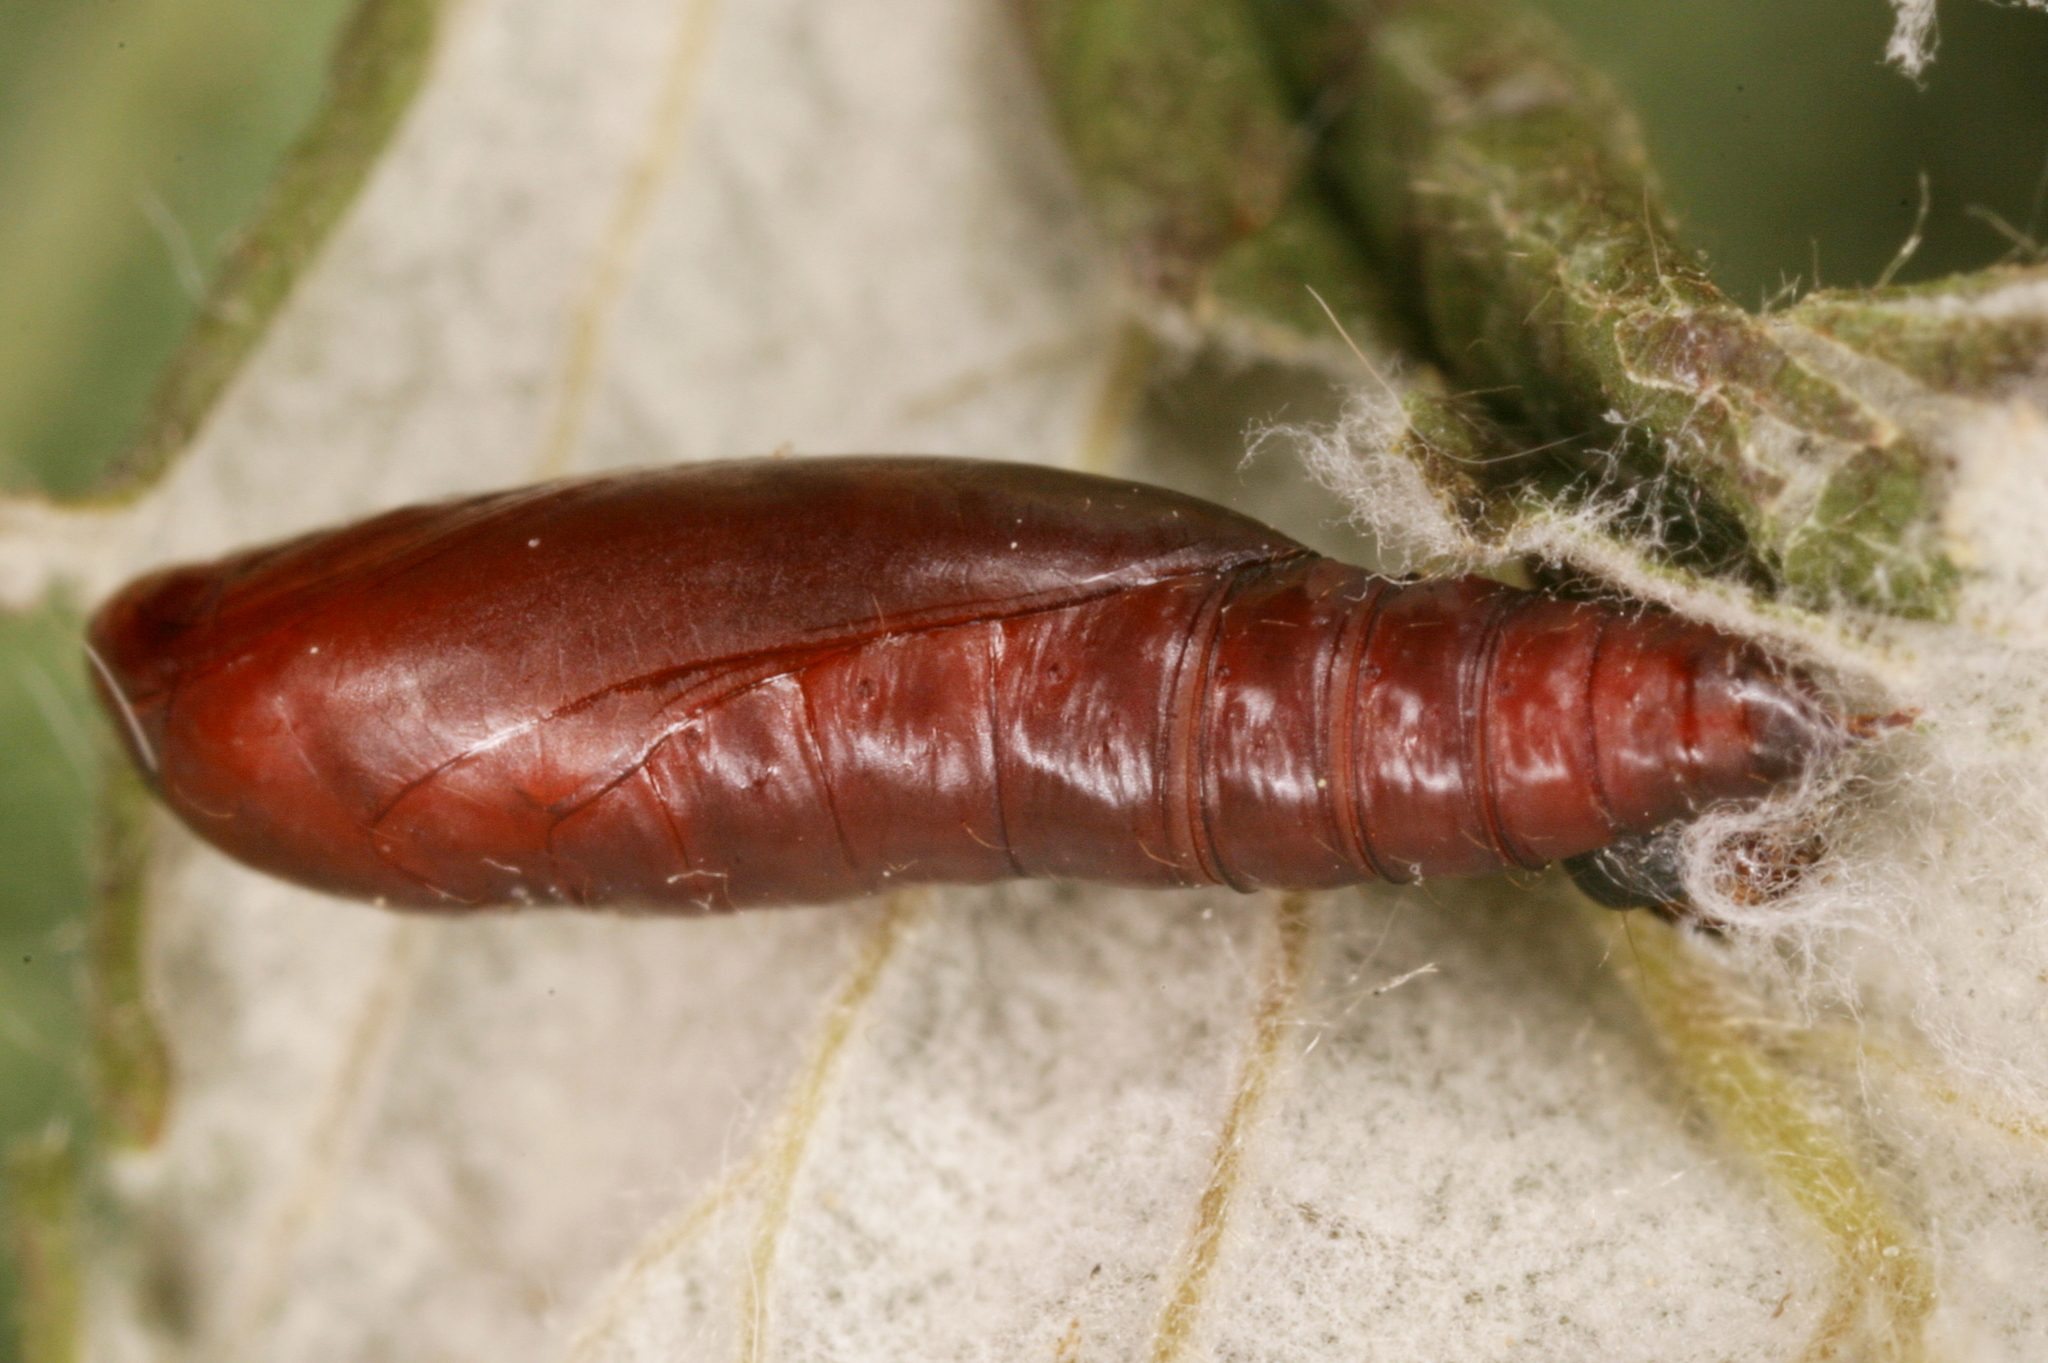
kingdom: Animalia
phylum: Arthropoda
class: Insecta
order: Lepidoptera
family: Gelechiidae
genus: Gelechia
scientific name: Gelechia sororculella
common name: Dark-striped groundling
